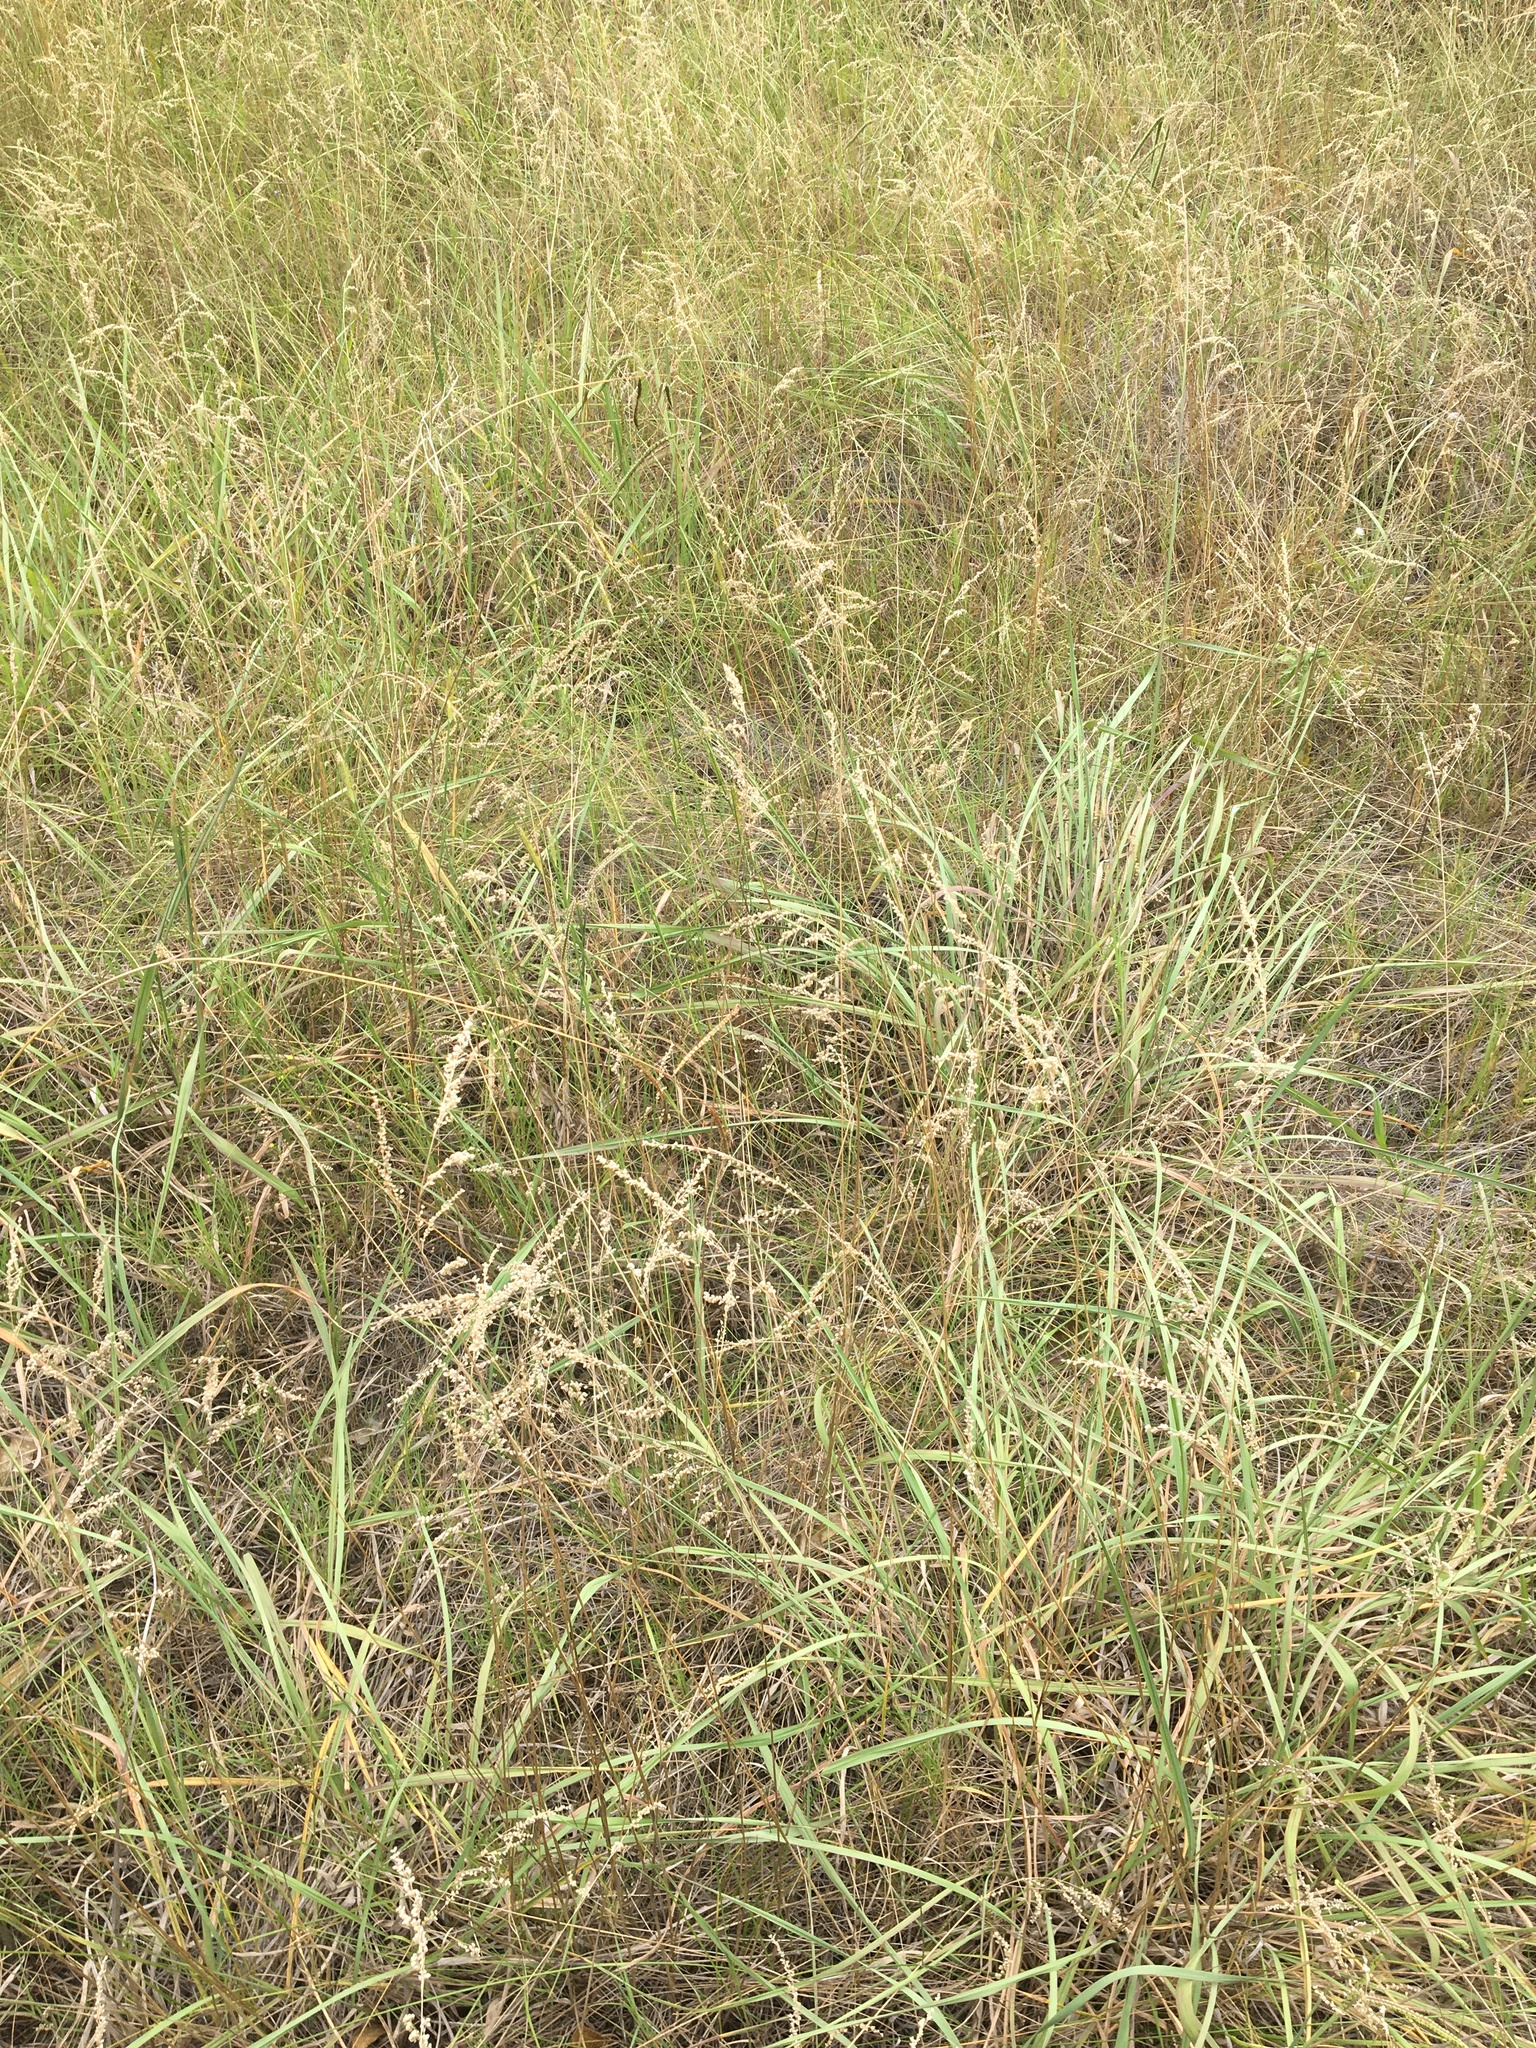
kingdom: Plantae
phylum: Tracheophyta
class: Liliopsida
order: Poales
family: Poaceae
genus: Chascolytrum
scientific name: Chascolytrum subaristatum
